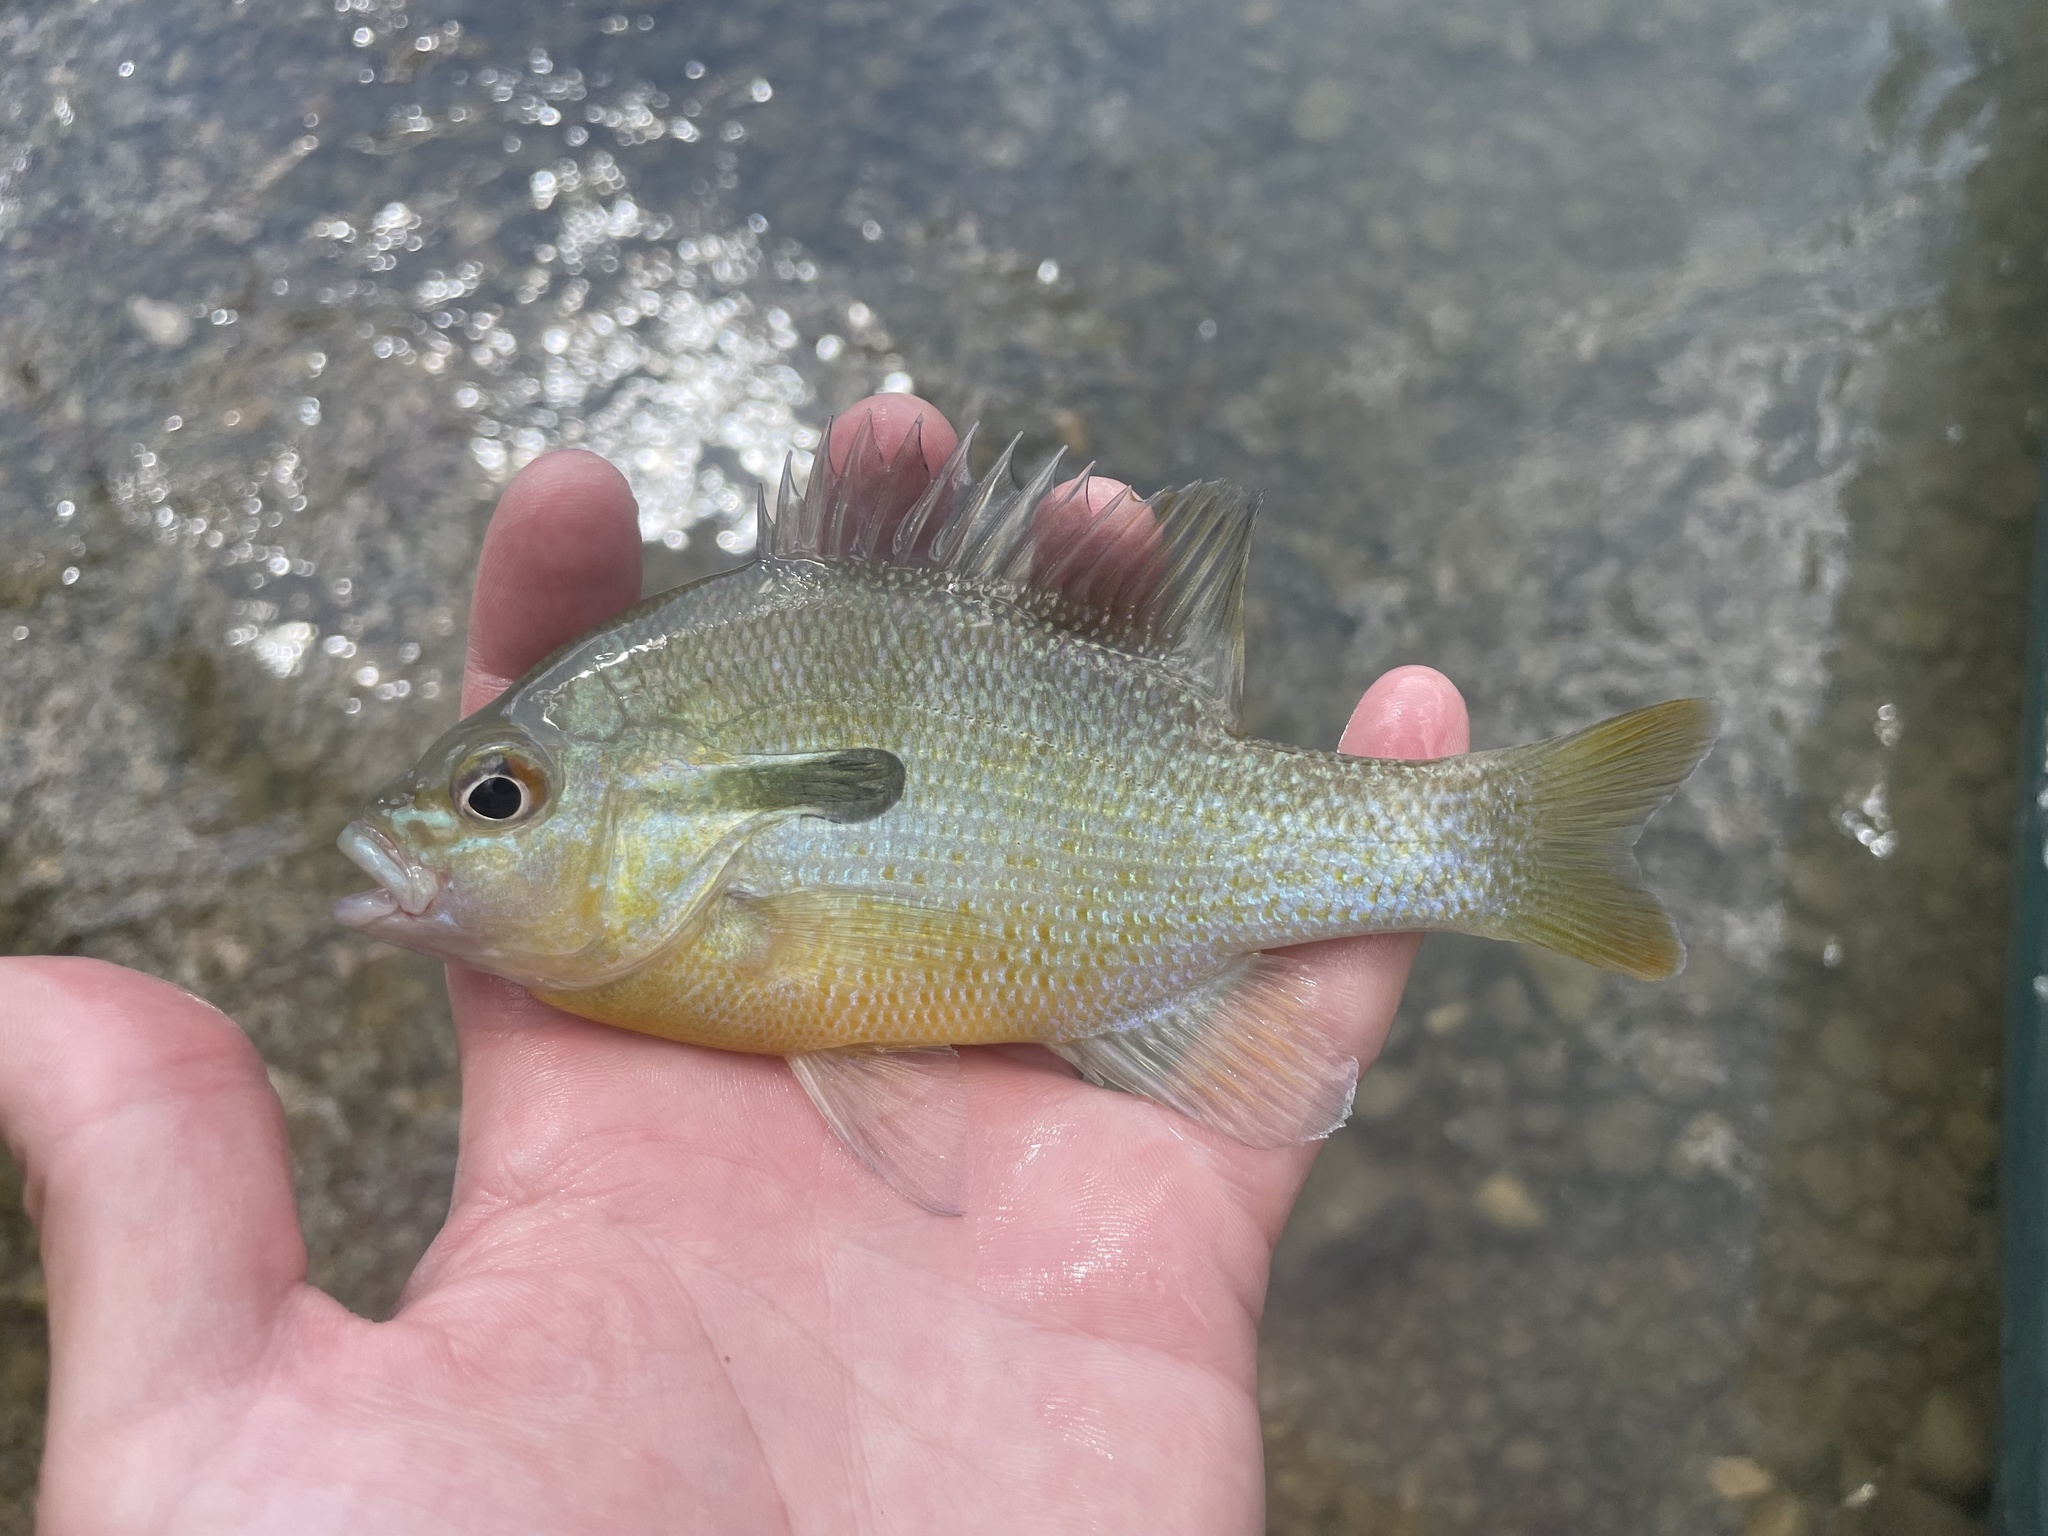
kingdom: Animalia
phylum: Chordata
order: Perciformes
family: Centrarchidae
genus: Lepomis
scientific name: Lepomis auritus
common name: Redbreast sunfish
